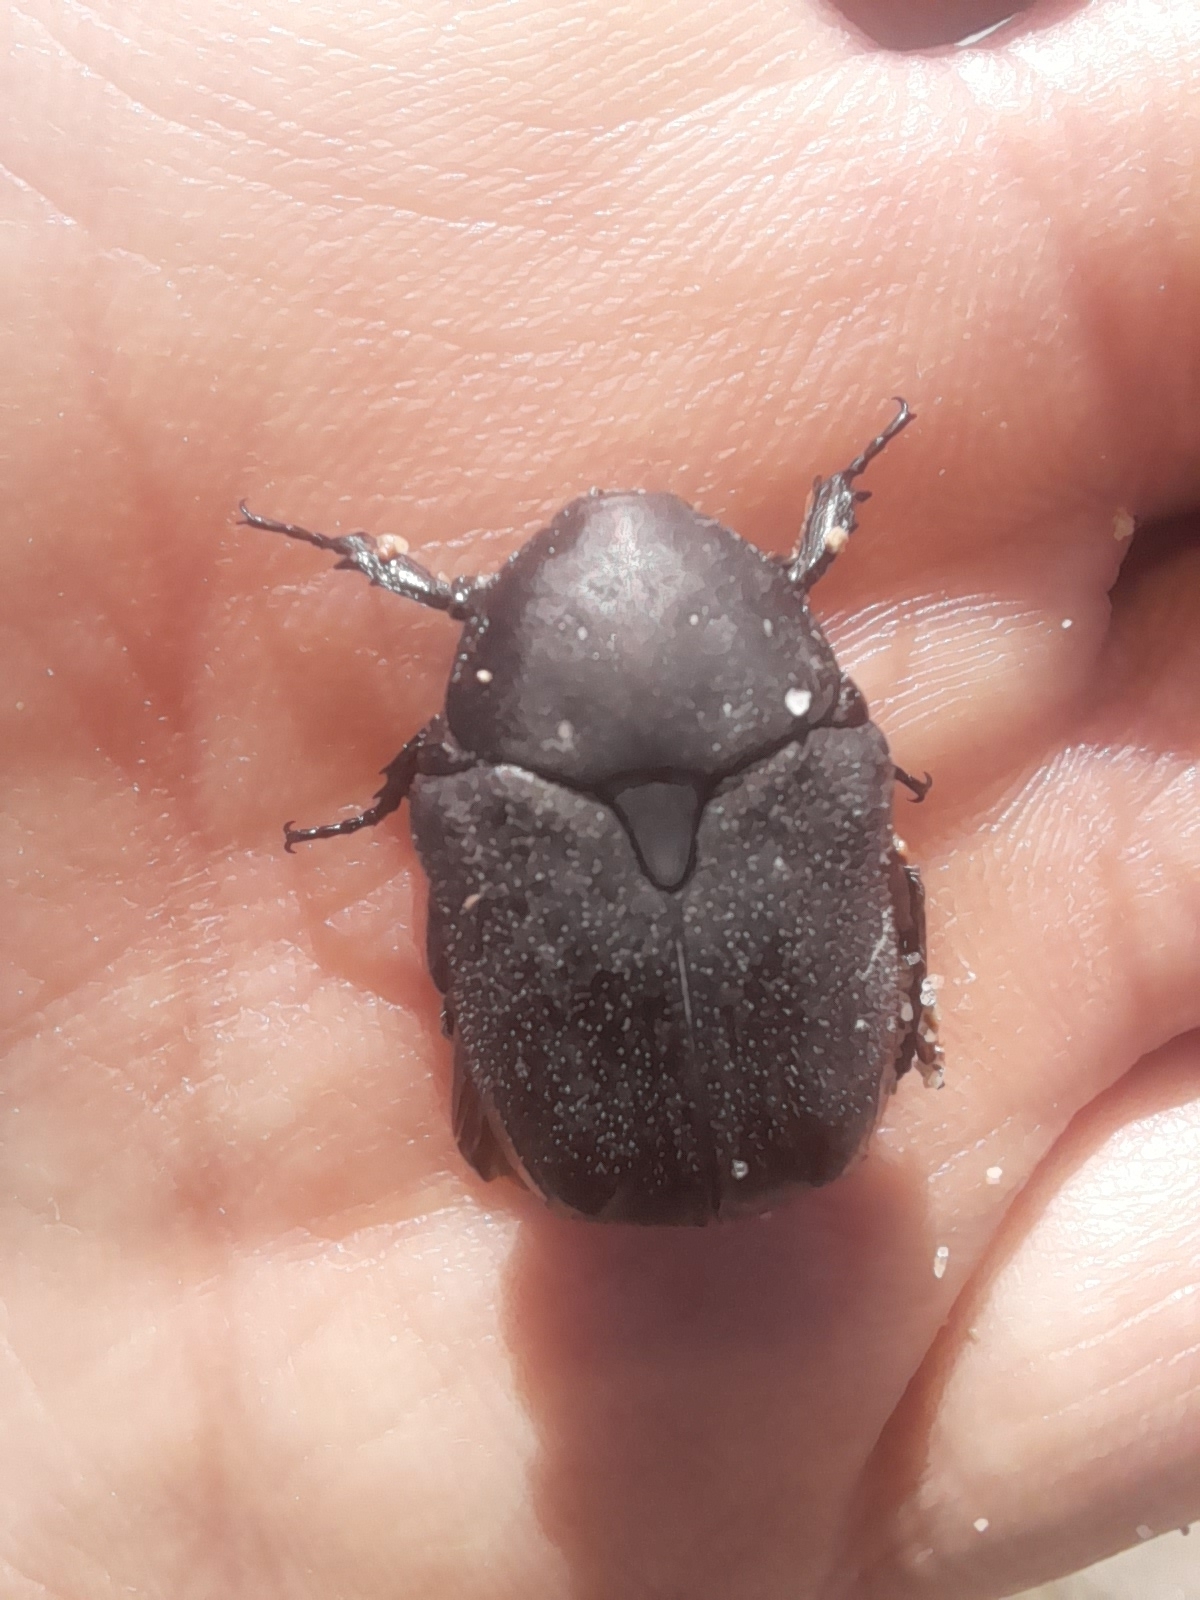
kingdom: Animalia
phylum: Arthropoda
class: Insecta
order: Coleoptera
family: Scarabaeidae
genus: Protaetia
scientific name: Protaetia morio
